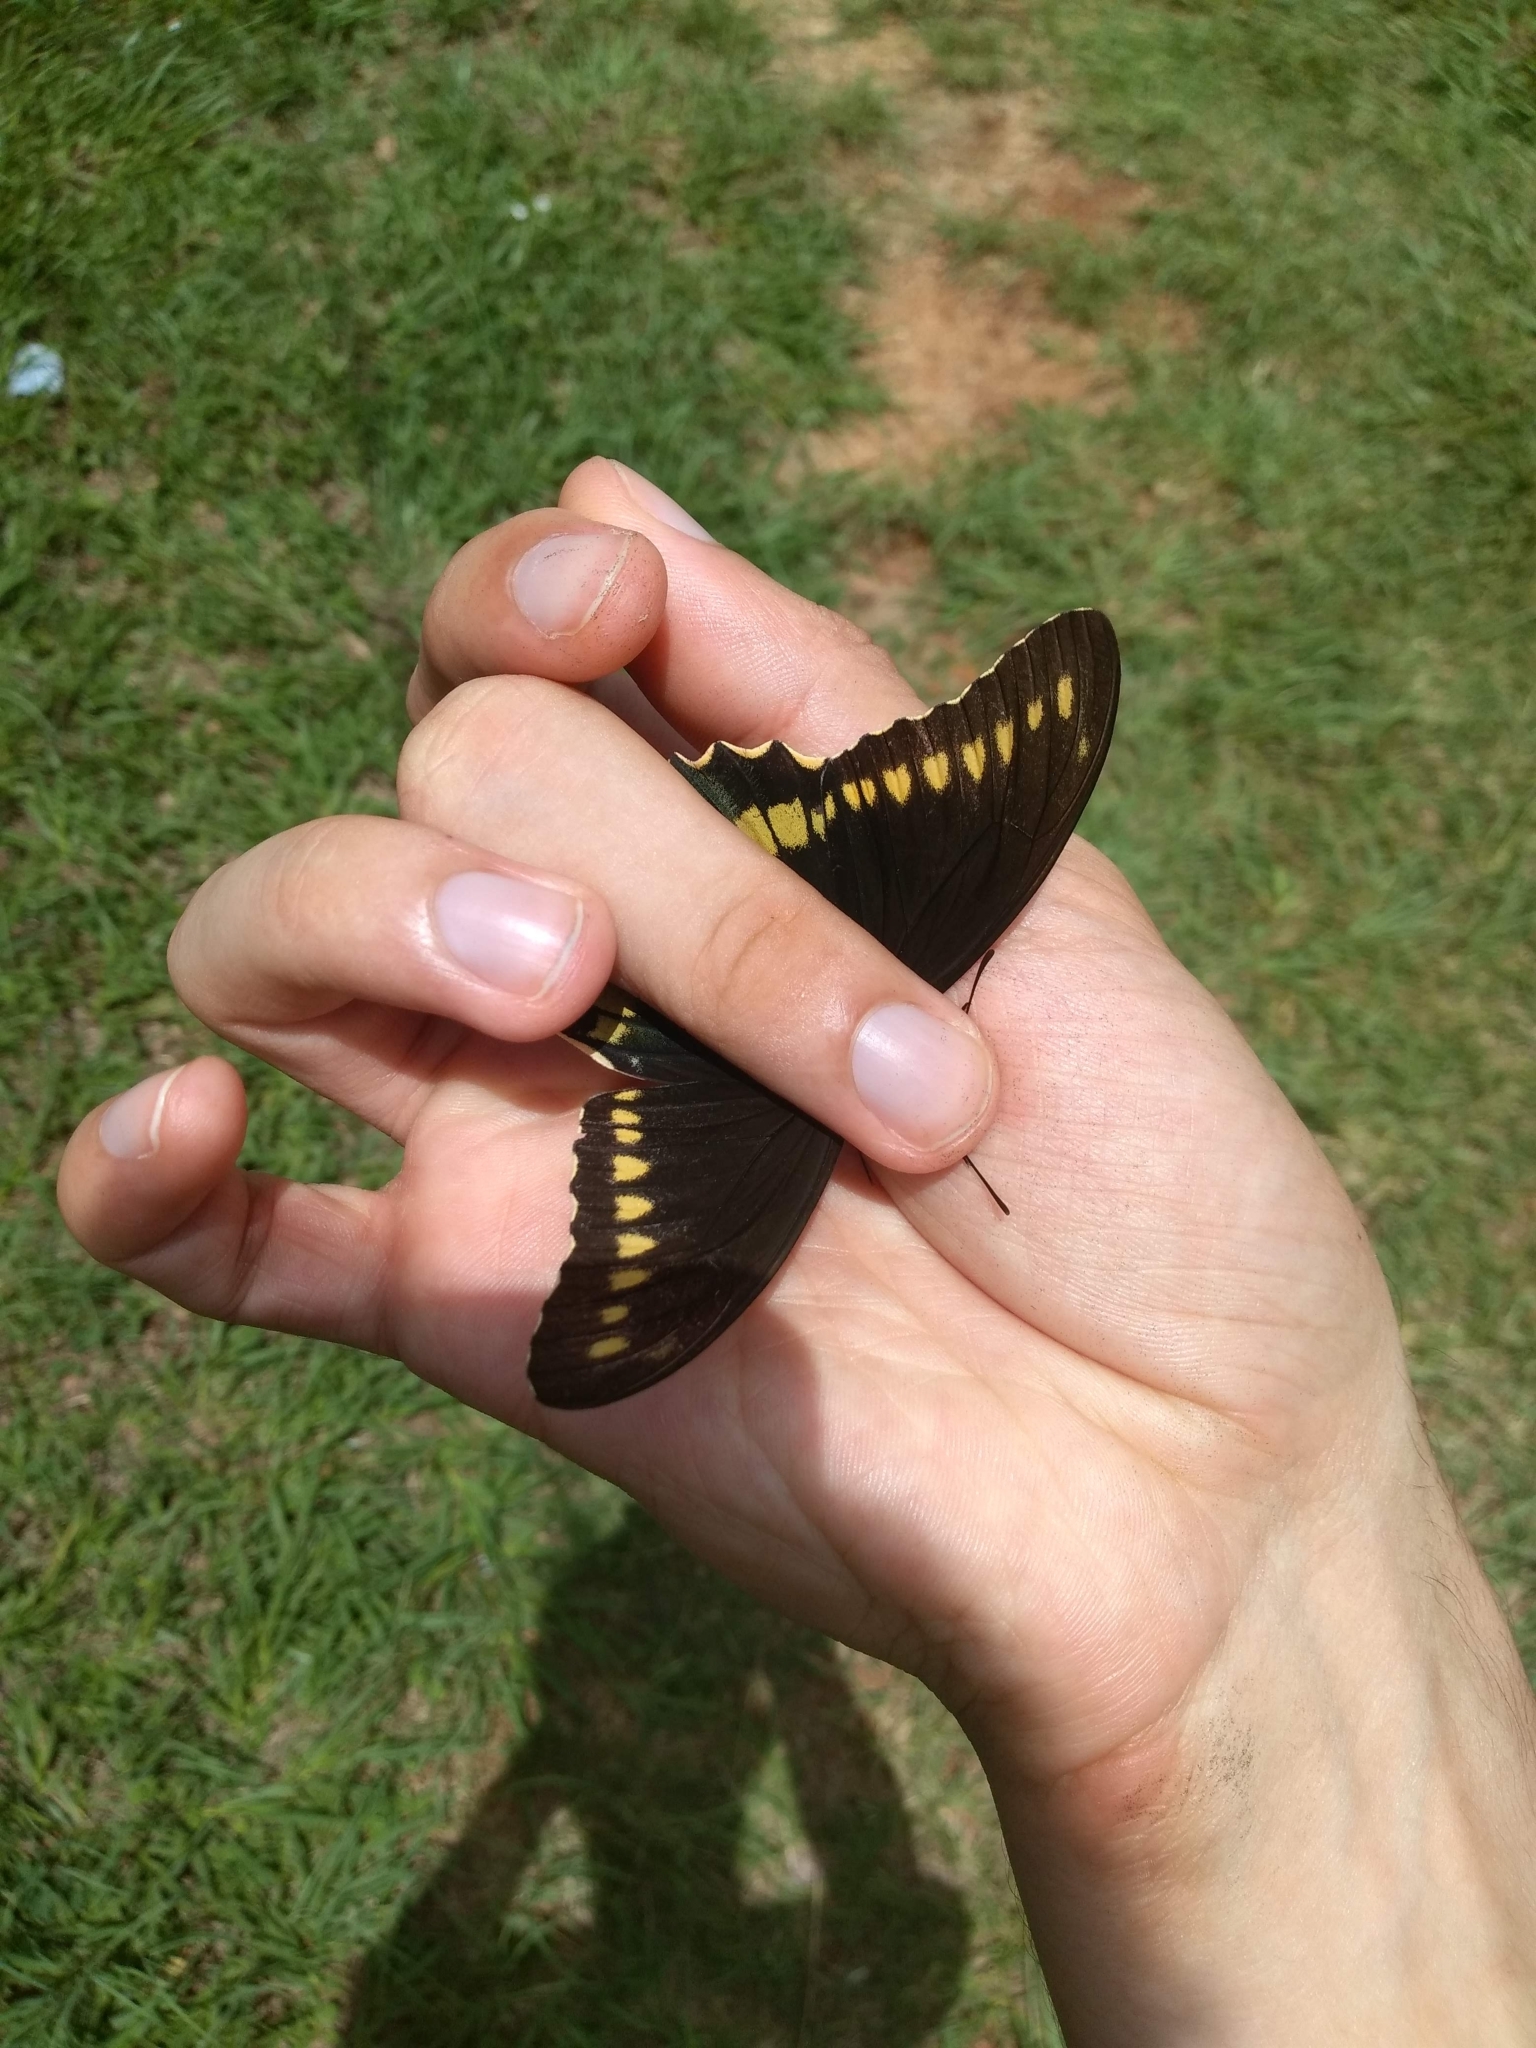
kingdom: Animalia
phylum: Arthropoda
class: Insecta
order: Lepidoptera
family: Papilionidae
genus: Battus
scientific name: Battus polydamas
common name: Polydamas swallowtail
